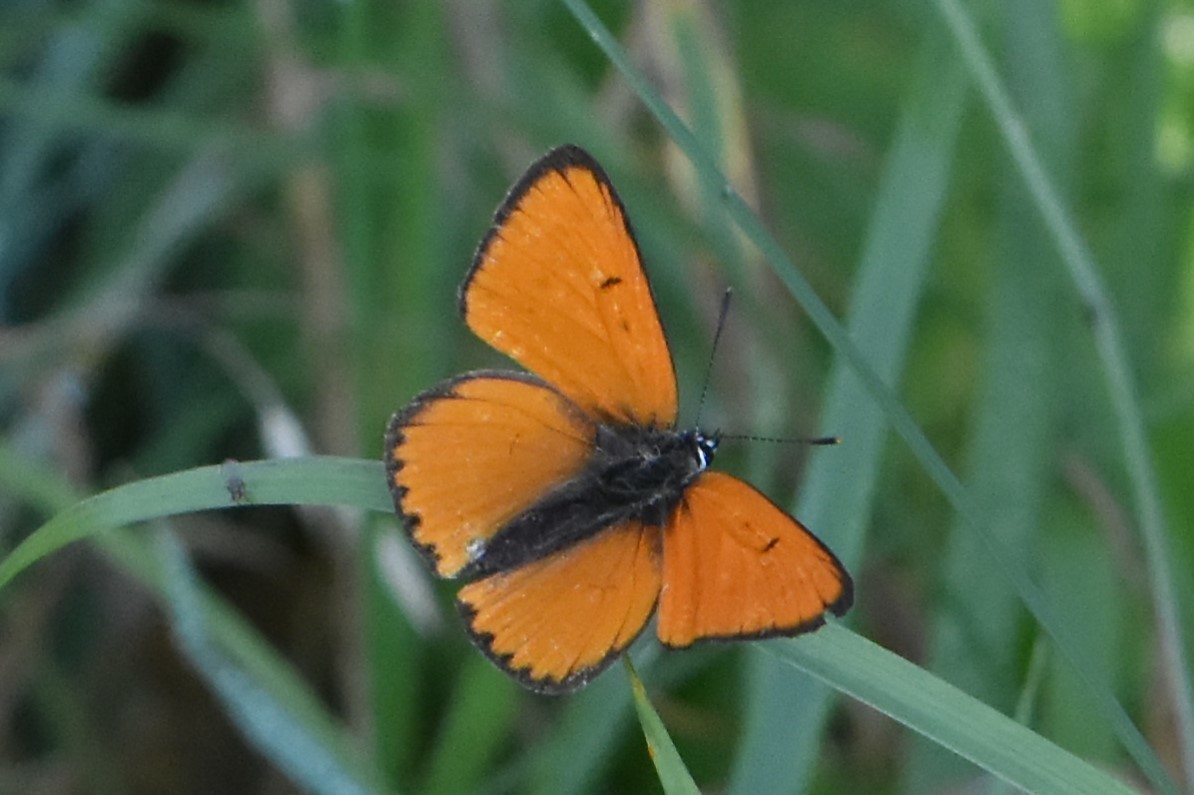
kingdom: Animalia
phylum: Arthropoda
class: Insecta
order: Lepidoptera
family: Lycaenidae
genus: Lycaena
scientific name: Lycaena dispar
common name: Large copper
